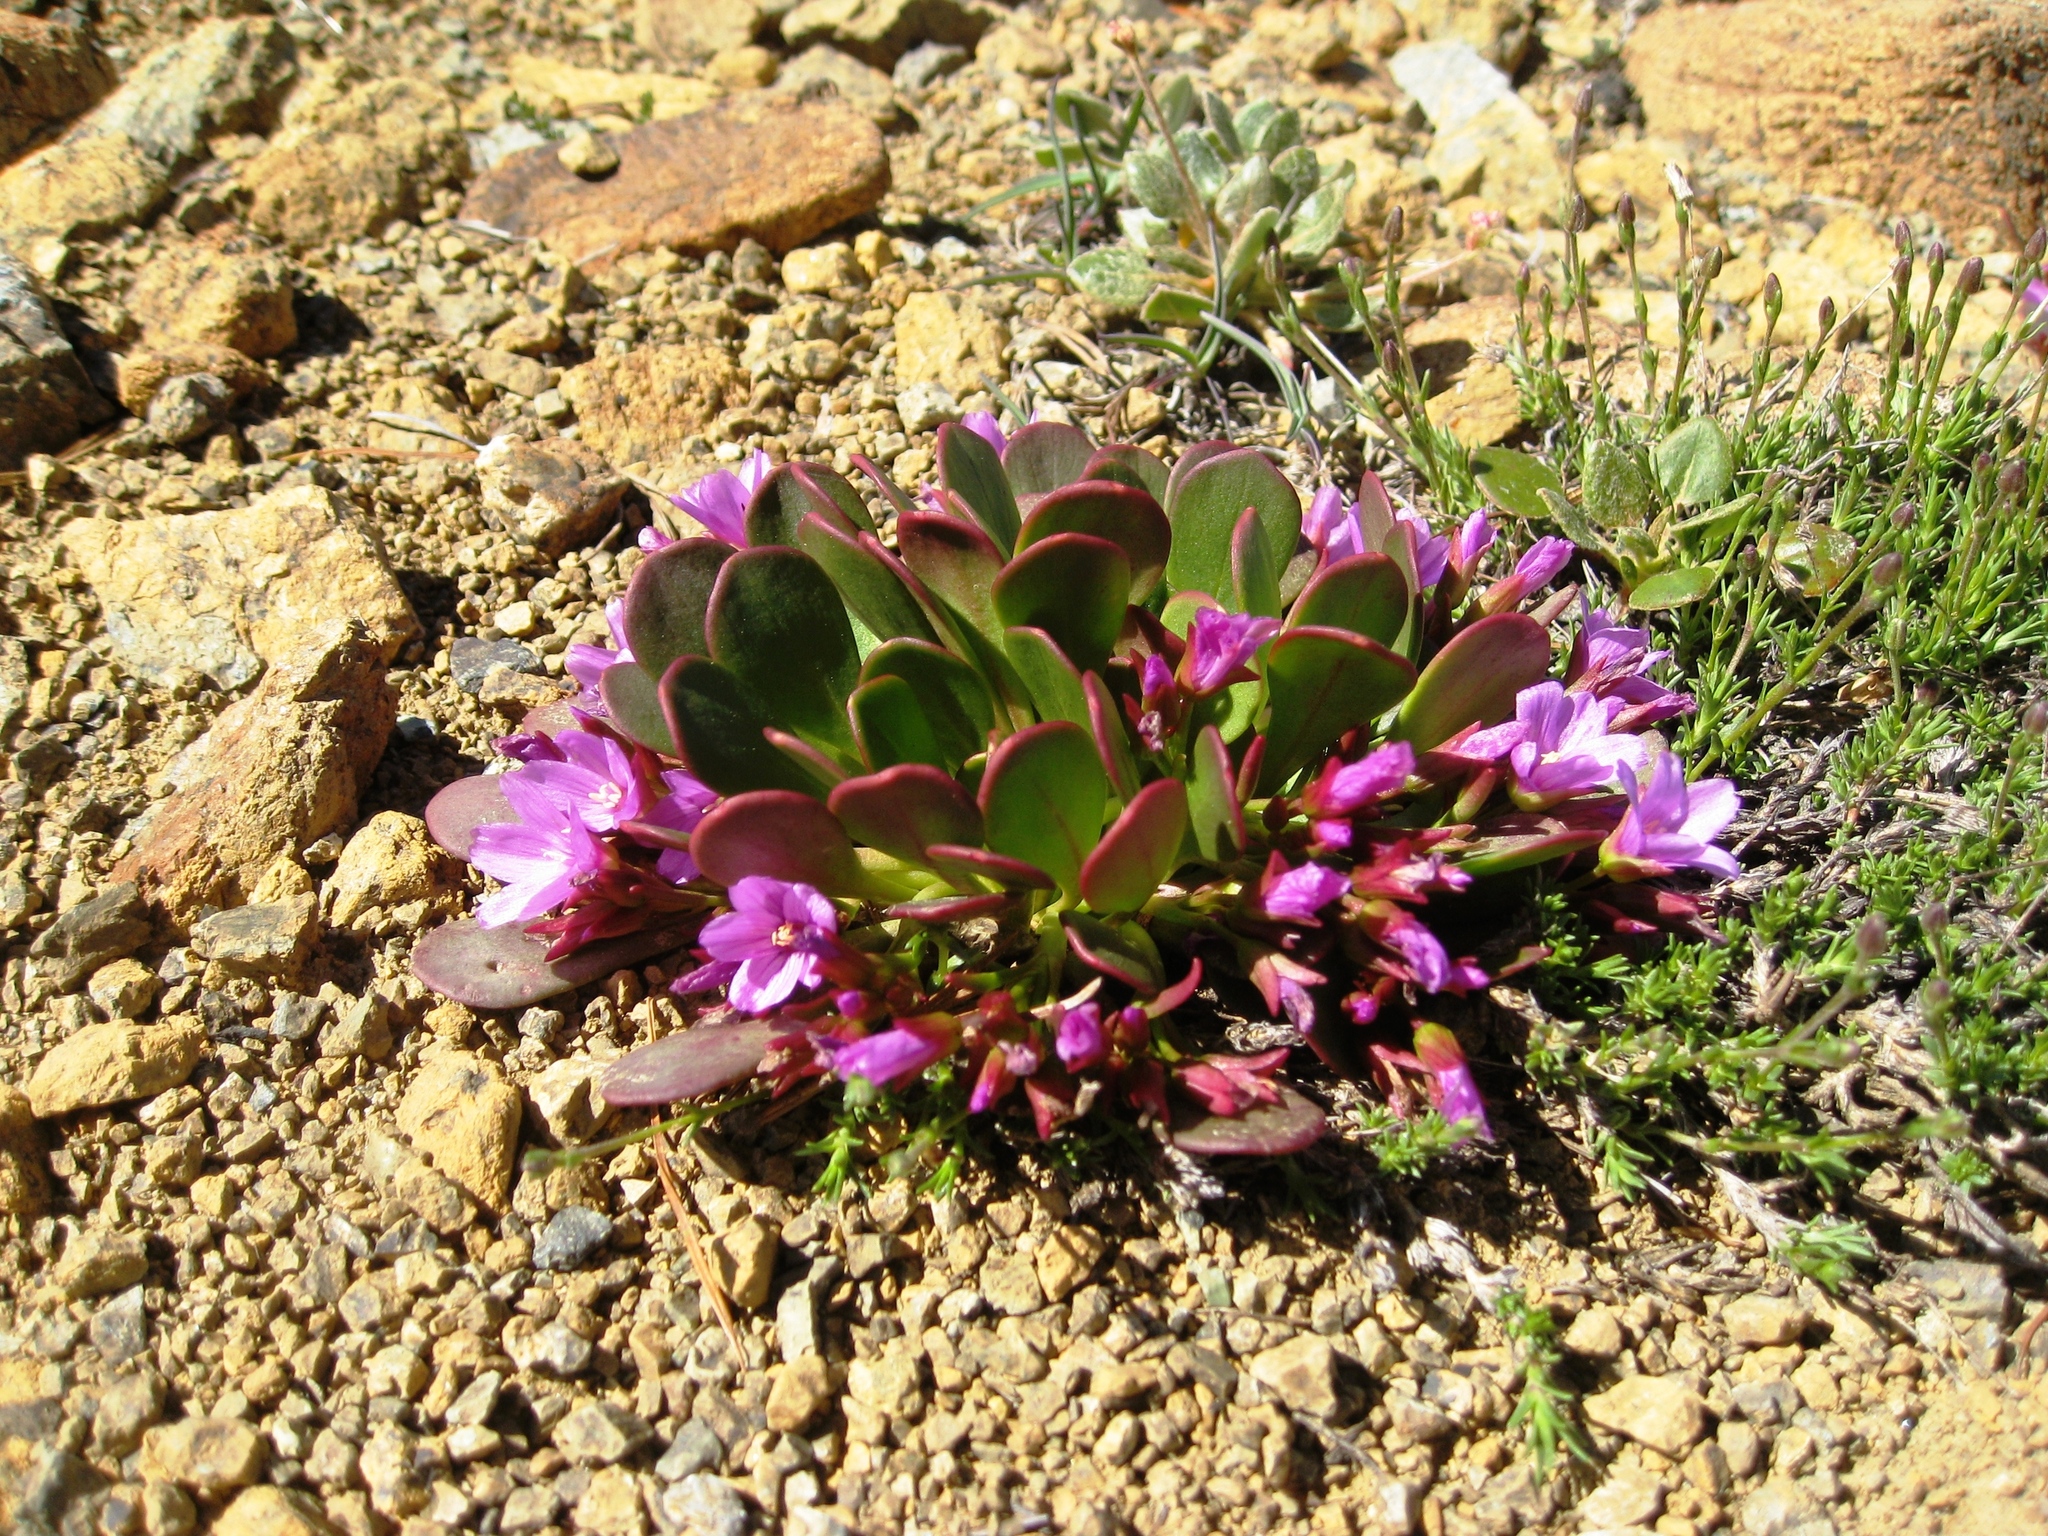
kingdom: Plantae
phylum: Tracheophyta
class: Magnoliopsida
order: Caryophyllales
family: Montiaceae
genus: Claytonia
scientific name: Claytonia megarhiza
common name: Alpine spring beauty
